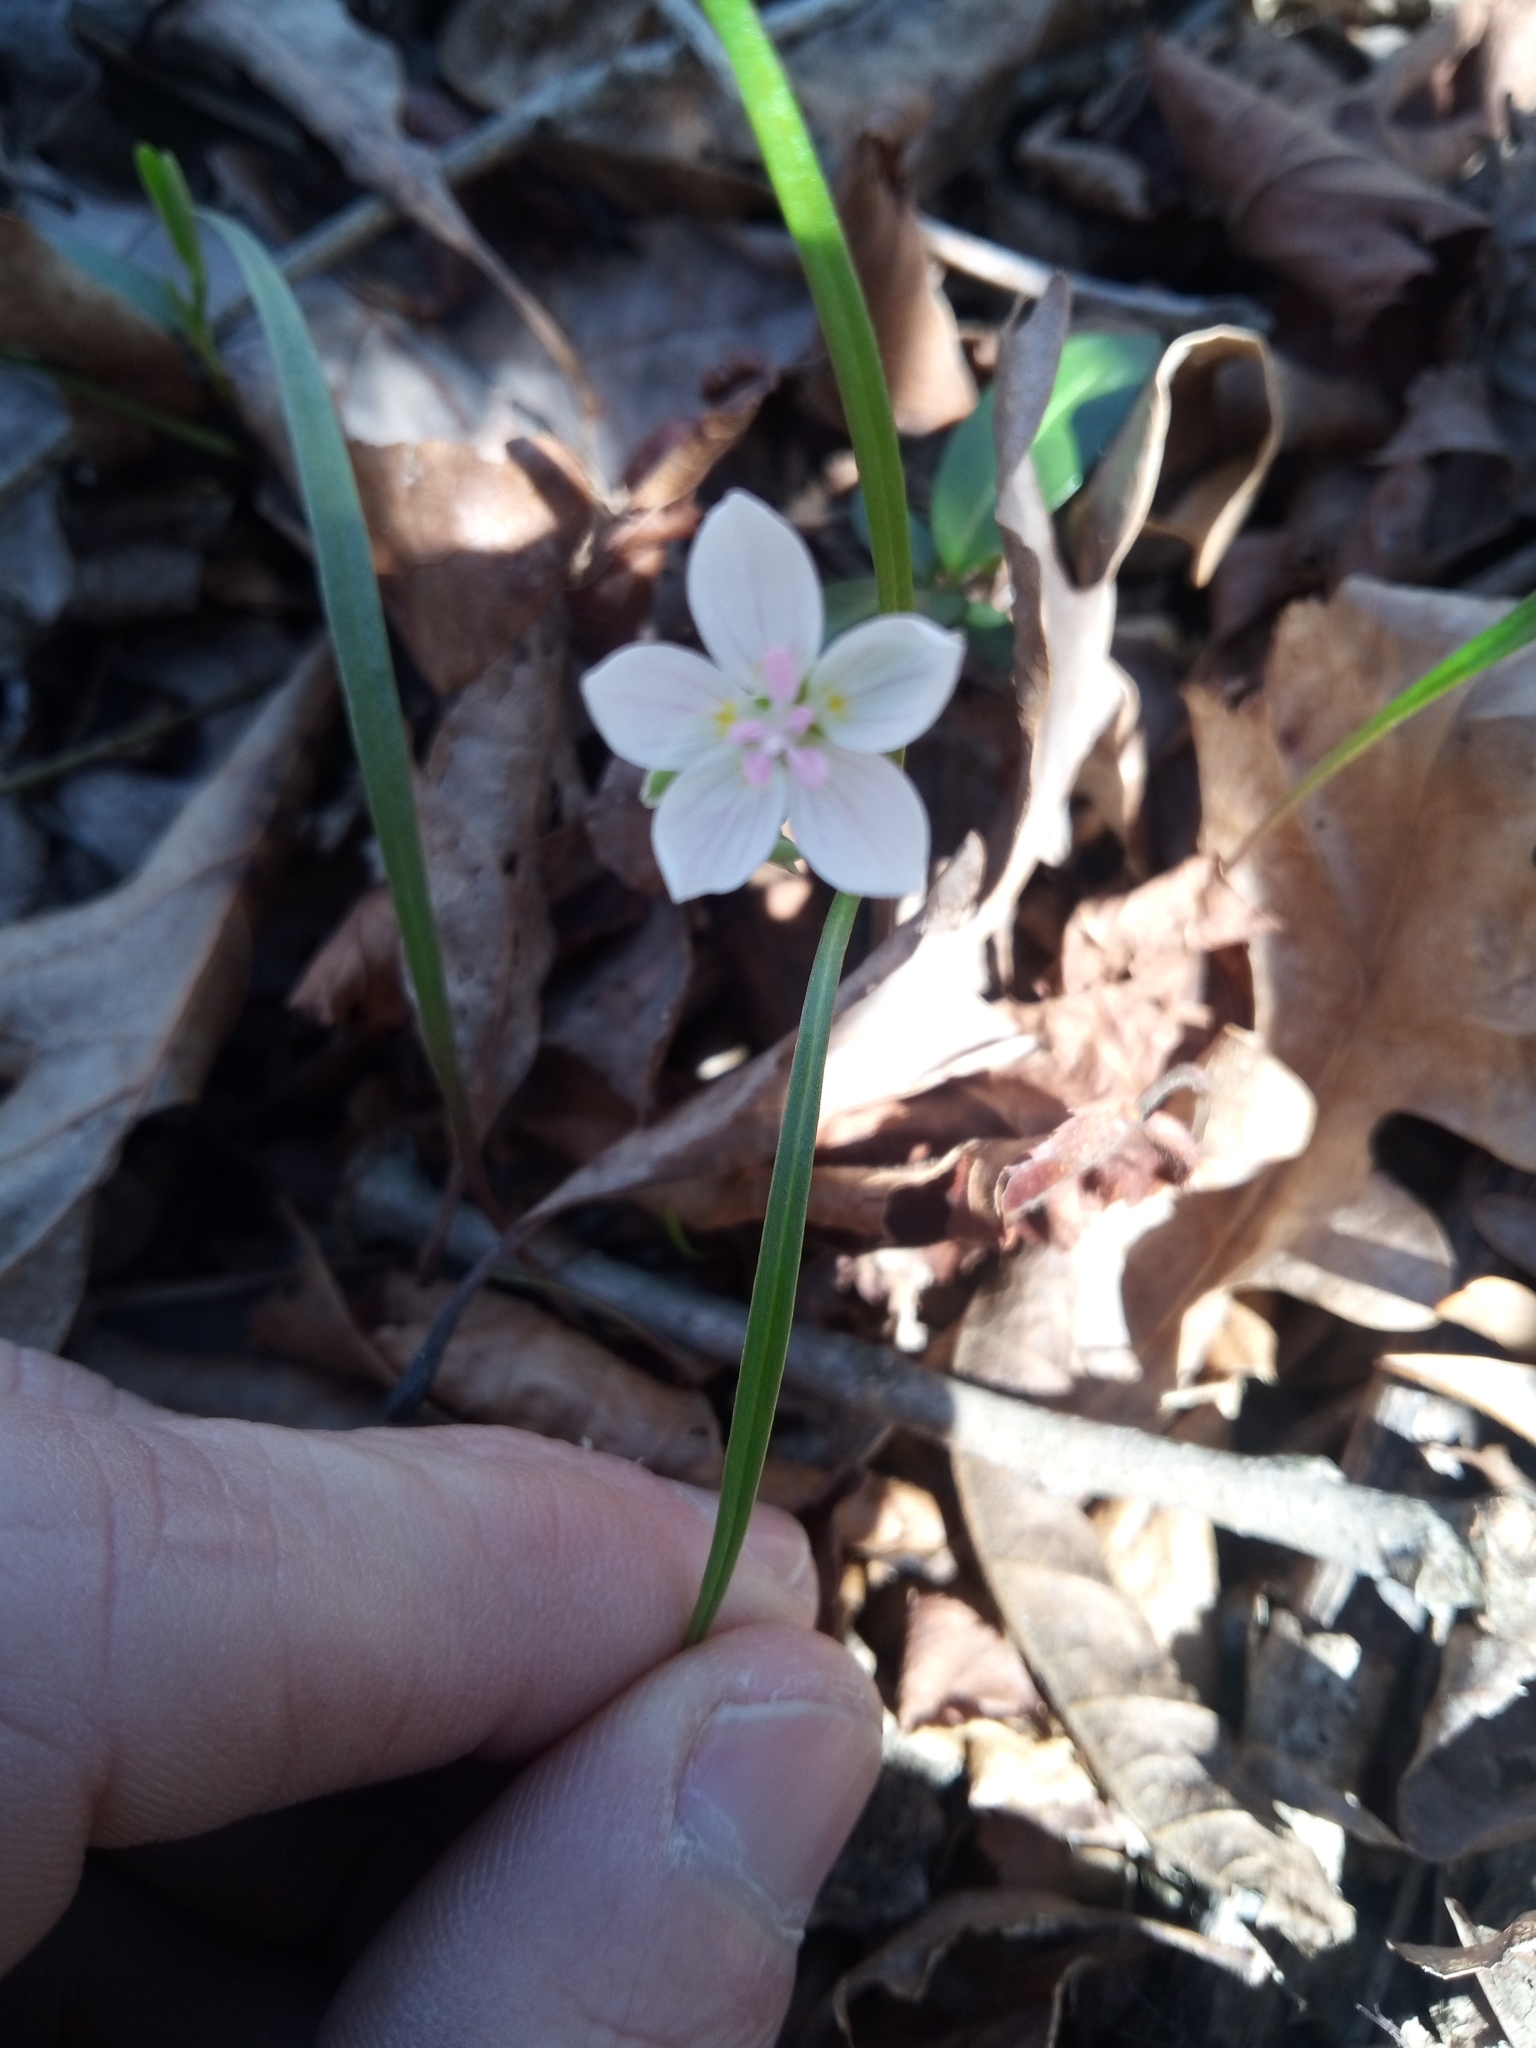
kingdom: Plantae
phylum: Tracheophyta
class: Magnoliopsida
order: Caryophyllales
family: Montiaceae
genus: Claytonia
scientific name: Claytonia virginica
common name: Virginia springbeauty
